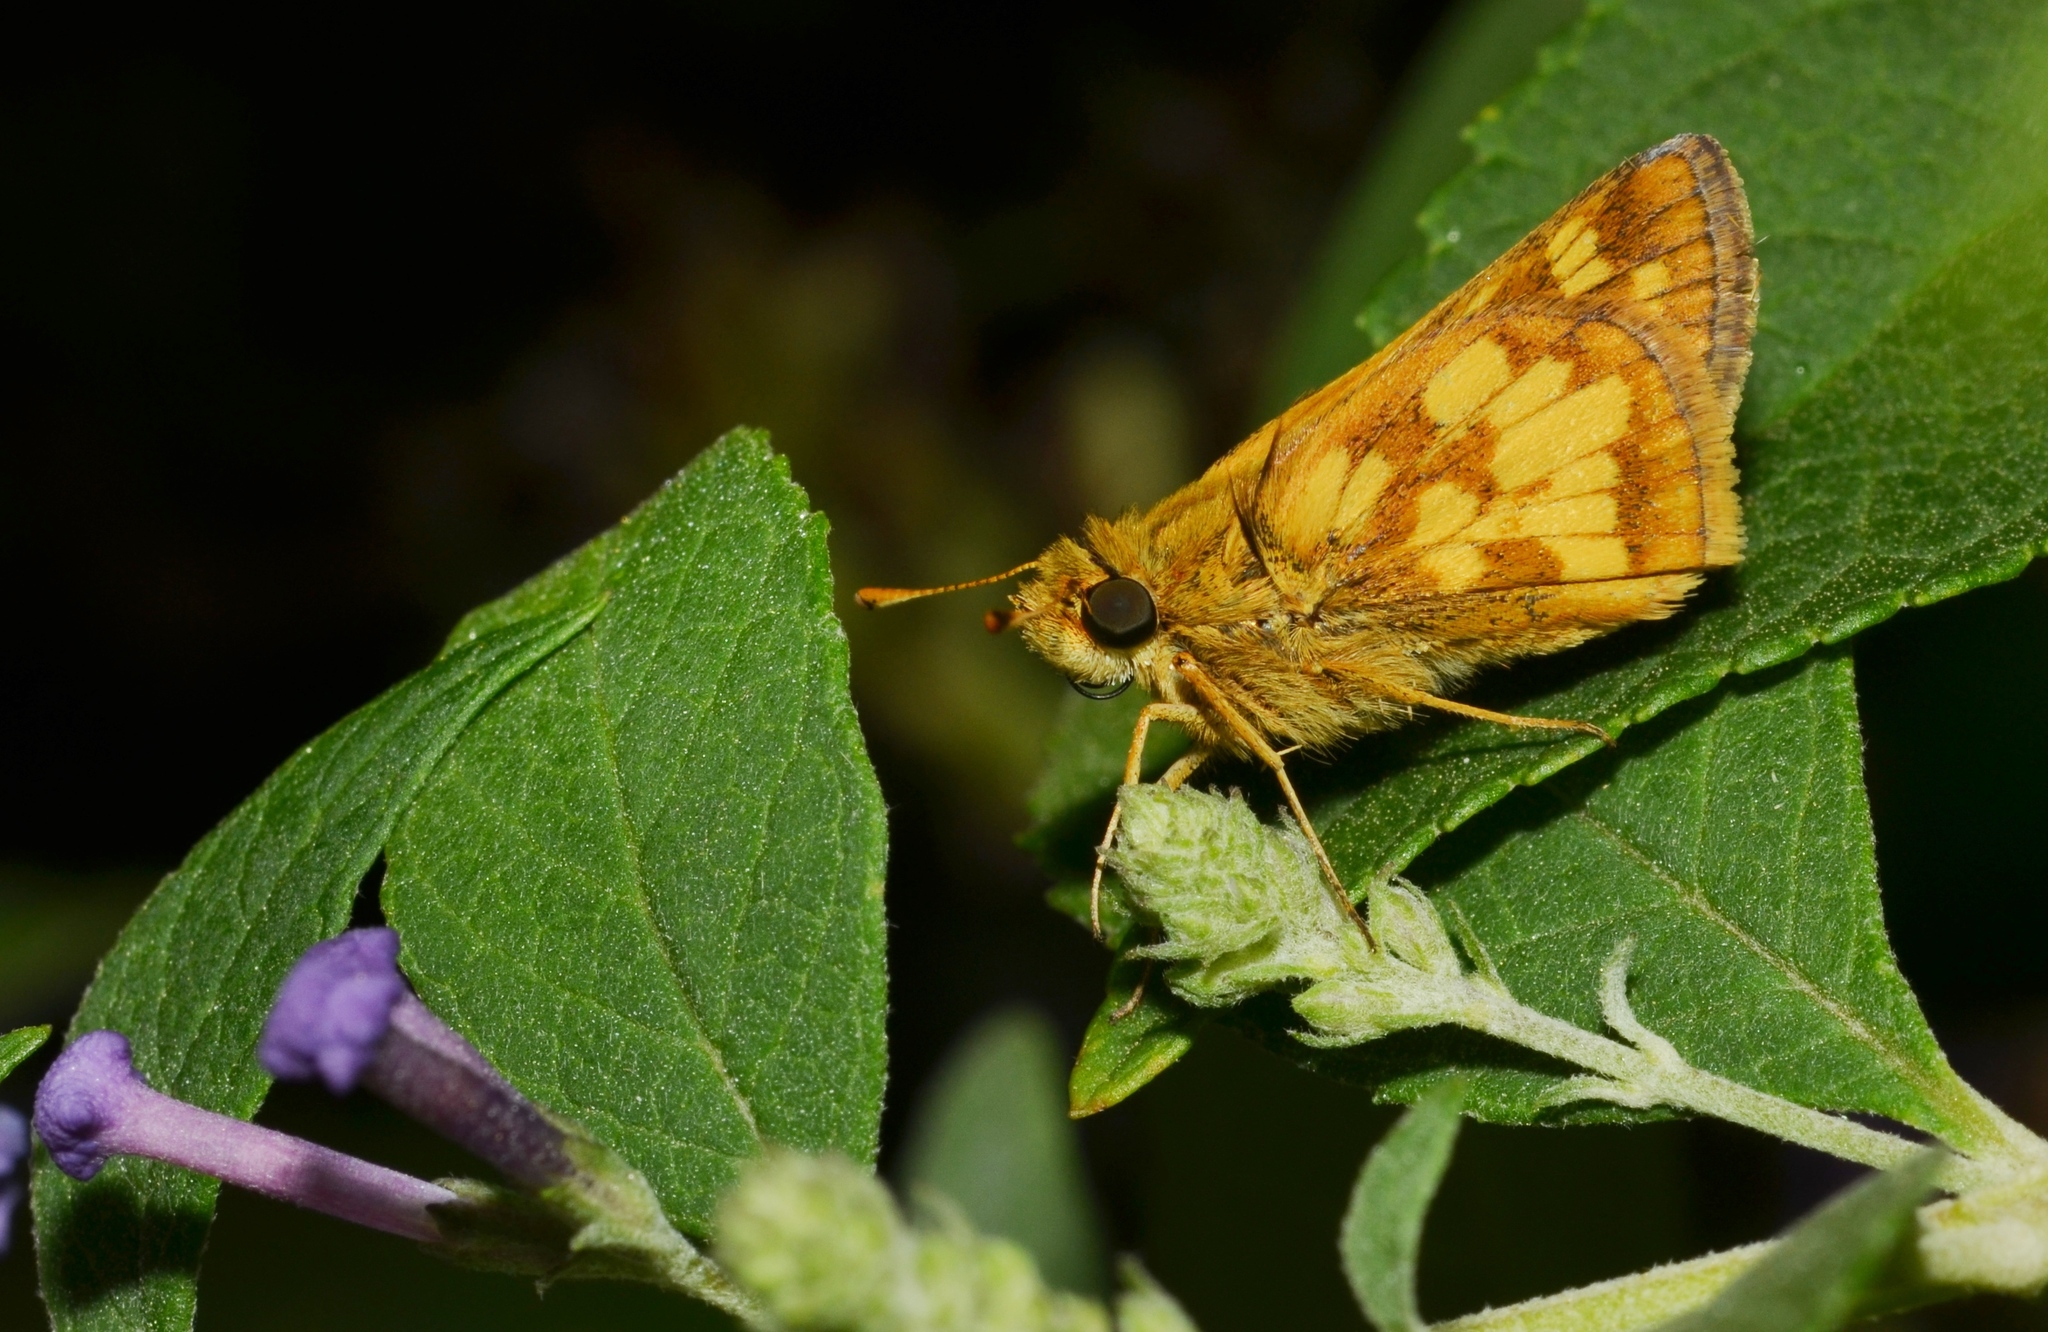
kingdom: Animalia
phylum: Arthropoda
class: Insecta
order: Lepidoptera
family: Hesperiidae
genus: Polites
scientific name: Polites coras
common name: Peck's skipper
